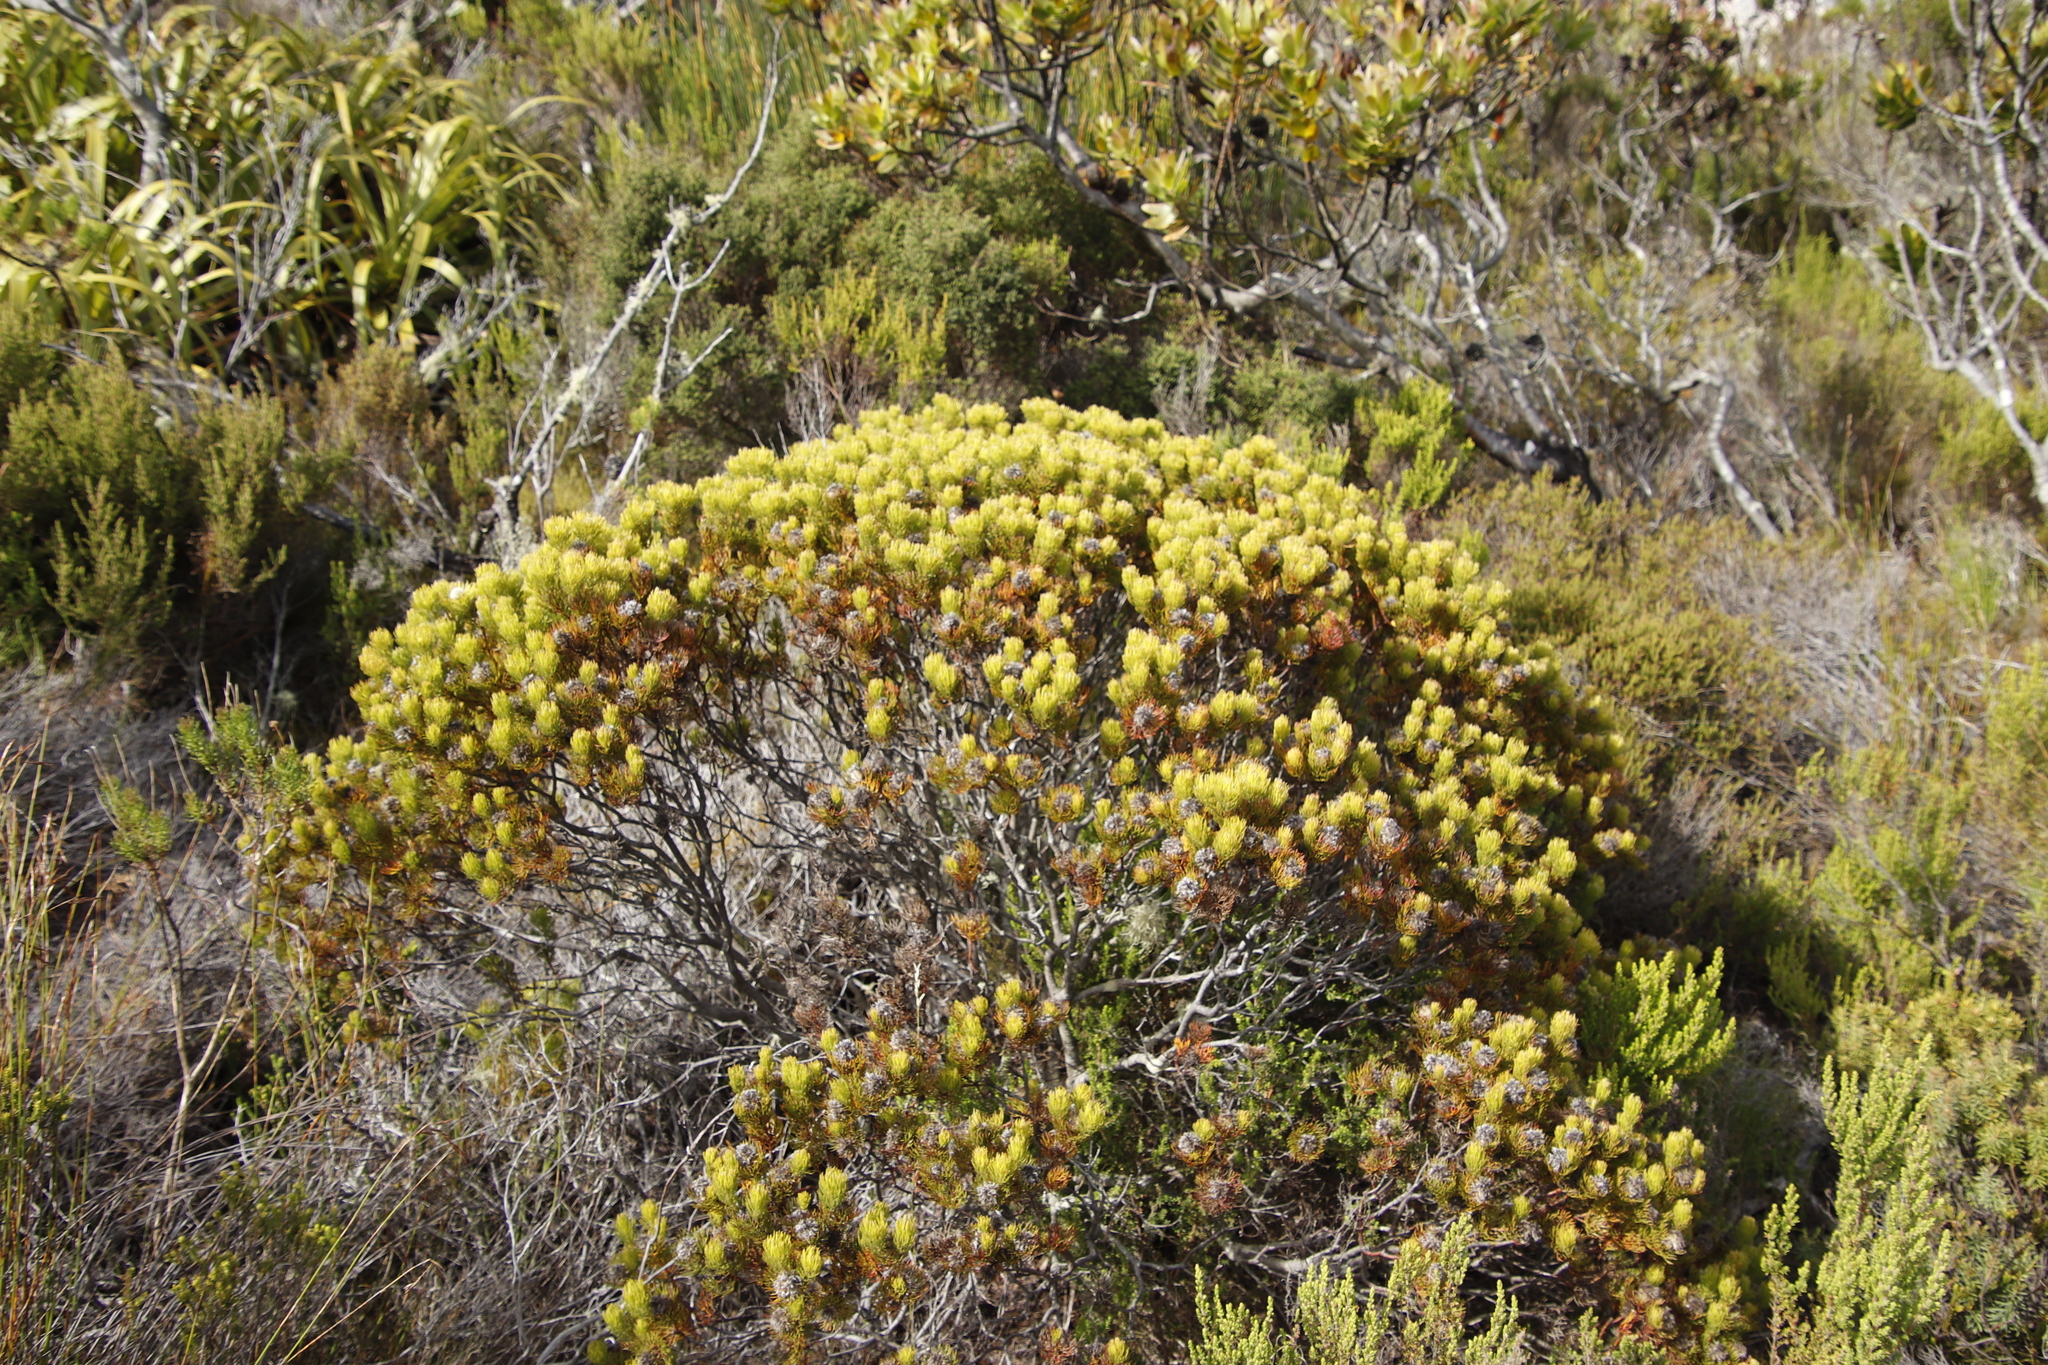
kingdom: Plantae
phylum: Tracheophyta
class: Magnoliopsida
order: Proteales
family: Proteaceae
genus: Serruria
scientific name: Serruria villosa
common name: Golden spiderhead
